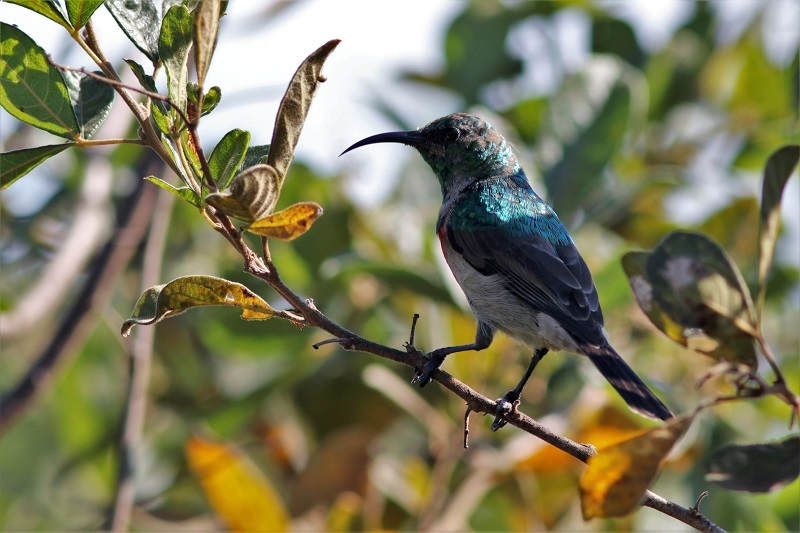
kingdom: Animalia
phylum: Chordata
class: Aves
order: Passeriformes
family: Nectariniidae
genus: Cinnyris
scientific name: Cinnyris chalybeus
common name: Southern double-collared sunbird
